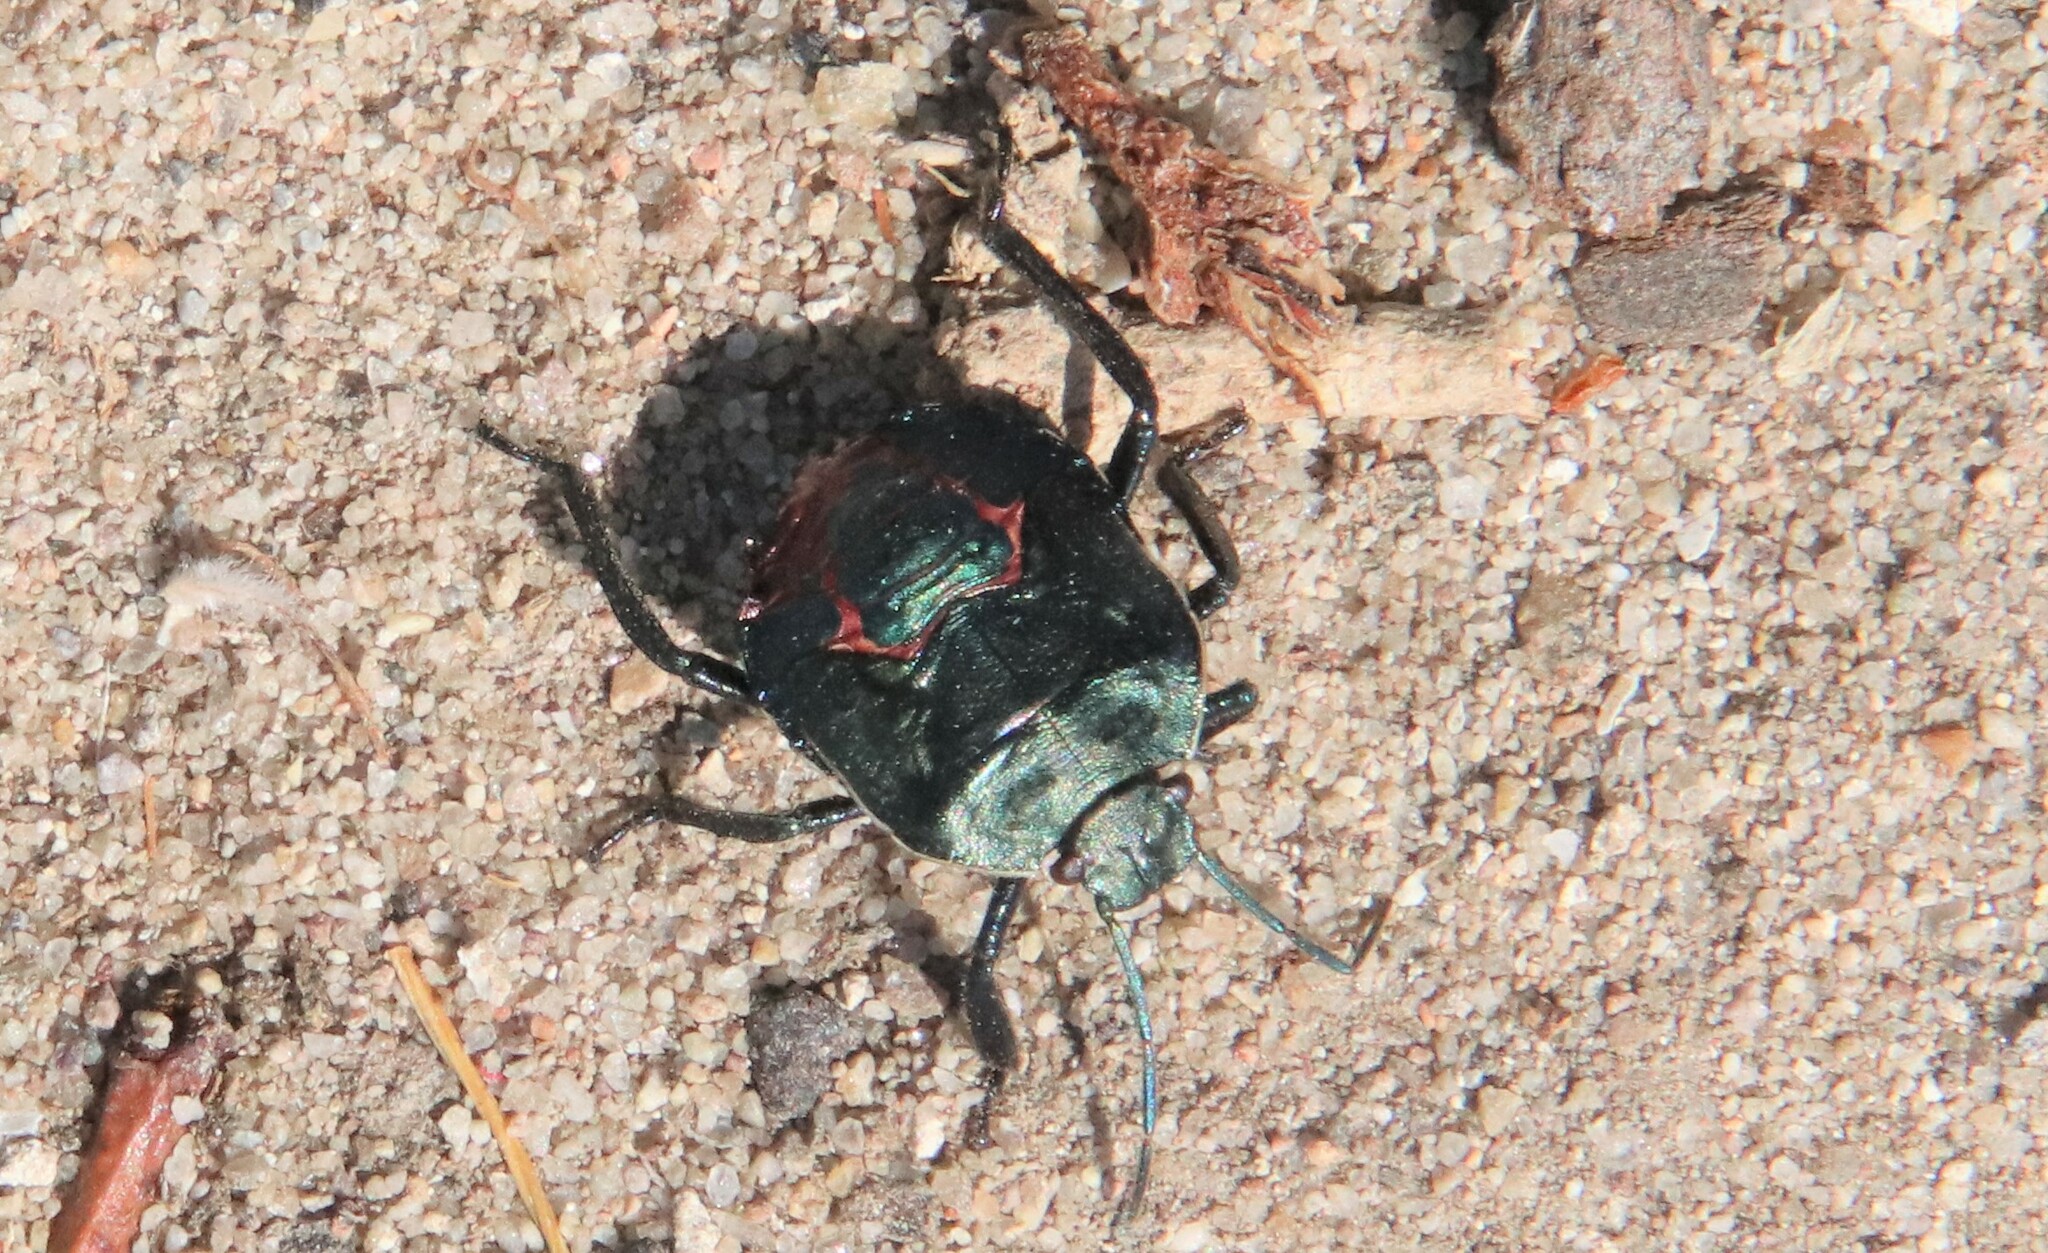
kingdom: Animalia
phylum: Arthropoda
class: Insecta
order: Hemiptera
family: Pentatomidae
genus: Pellaea
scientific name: Pellaea stictica
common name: Stink bug
